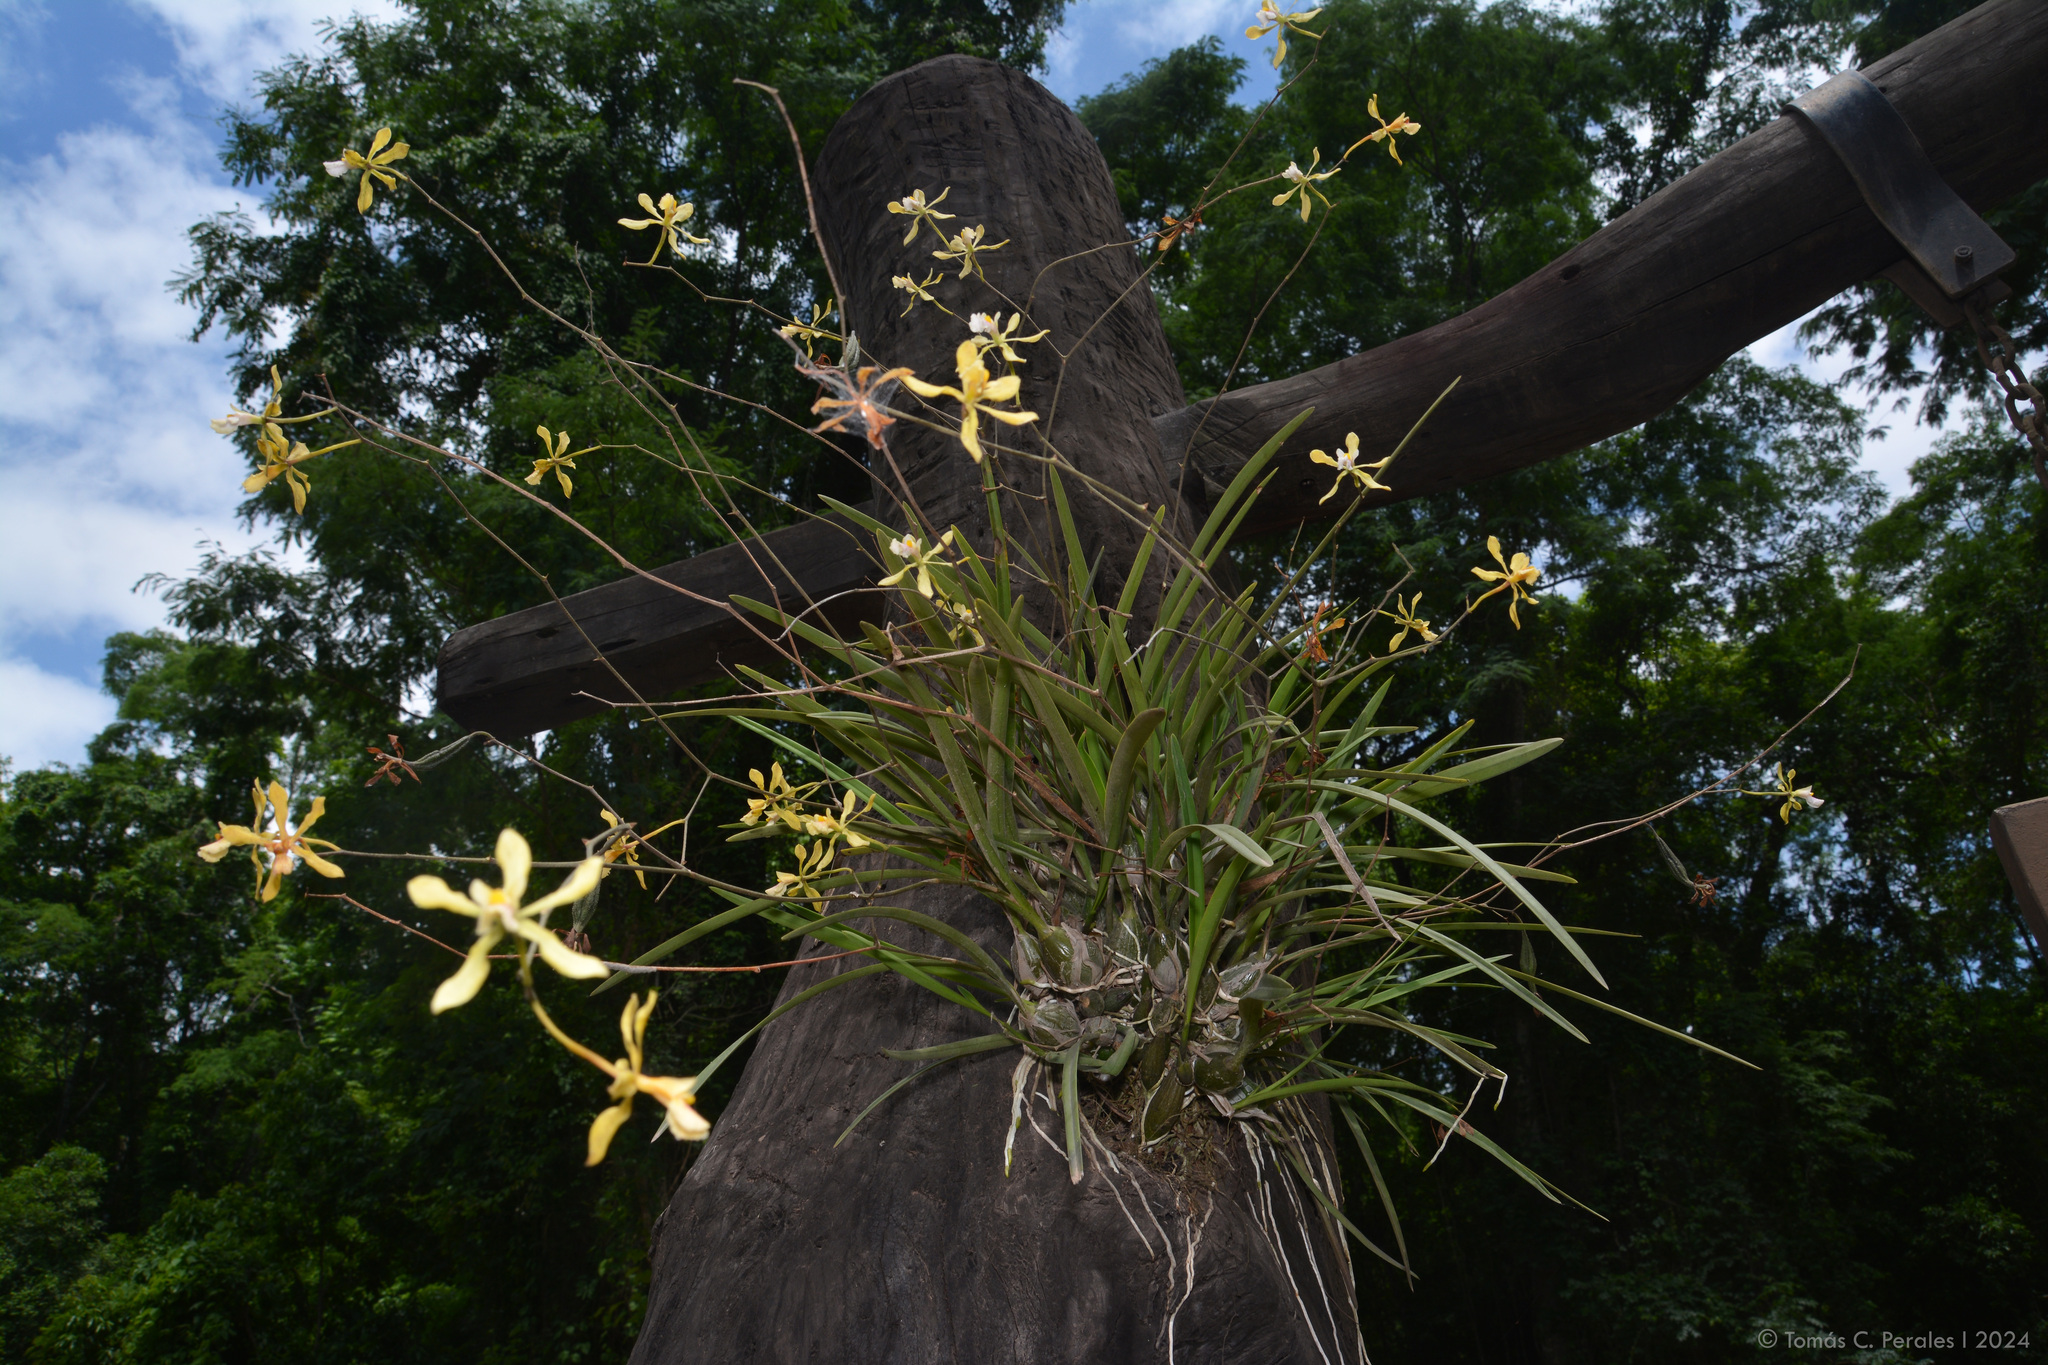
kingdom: Plantae
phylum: Tracheophyta
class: Liliopsida
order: Asparagales
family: Orchidaceae
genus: Encyclia
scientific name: Encyclia argentinensis
